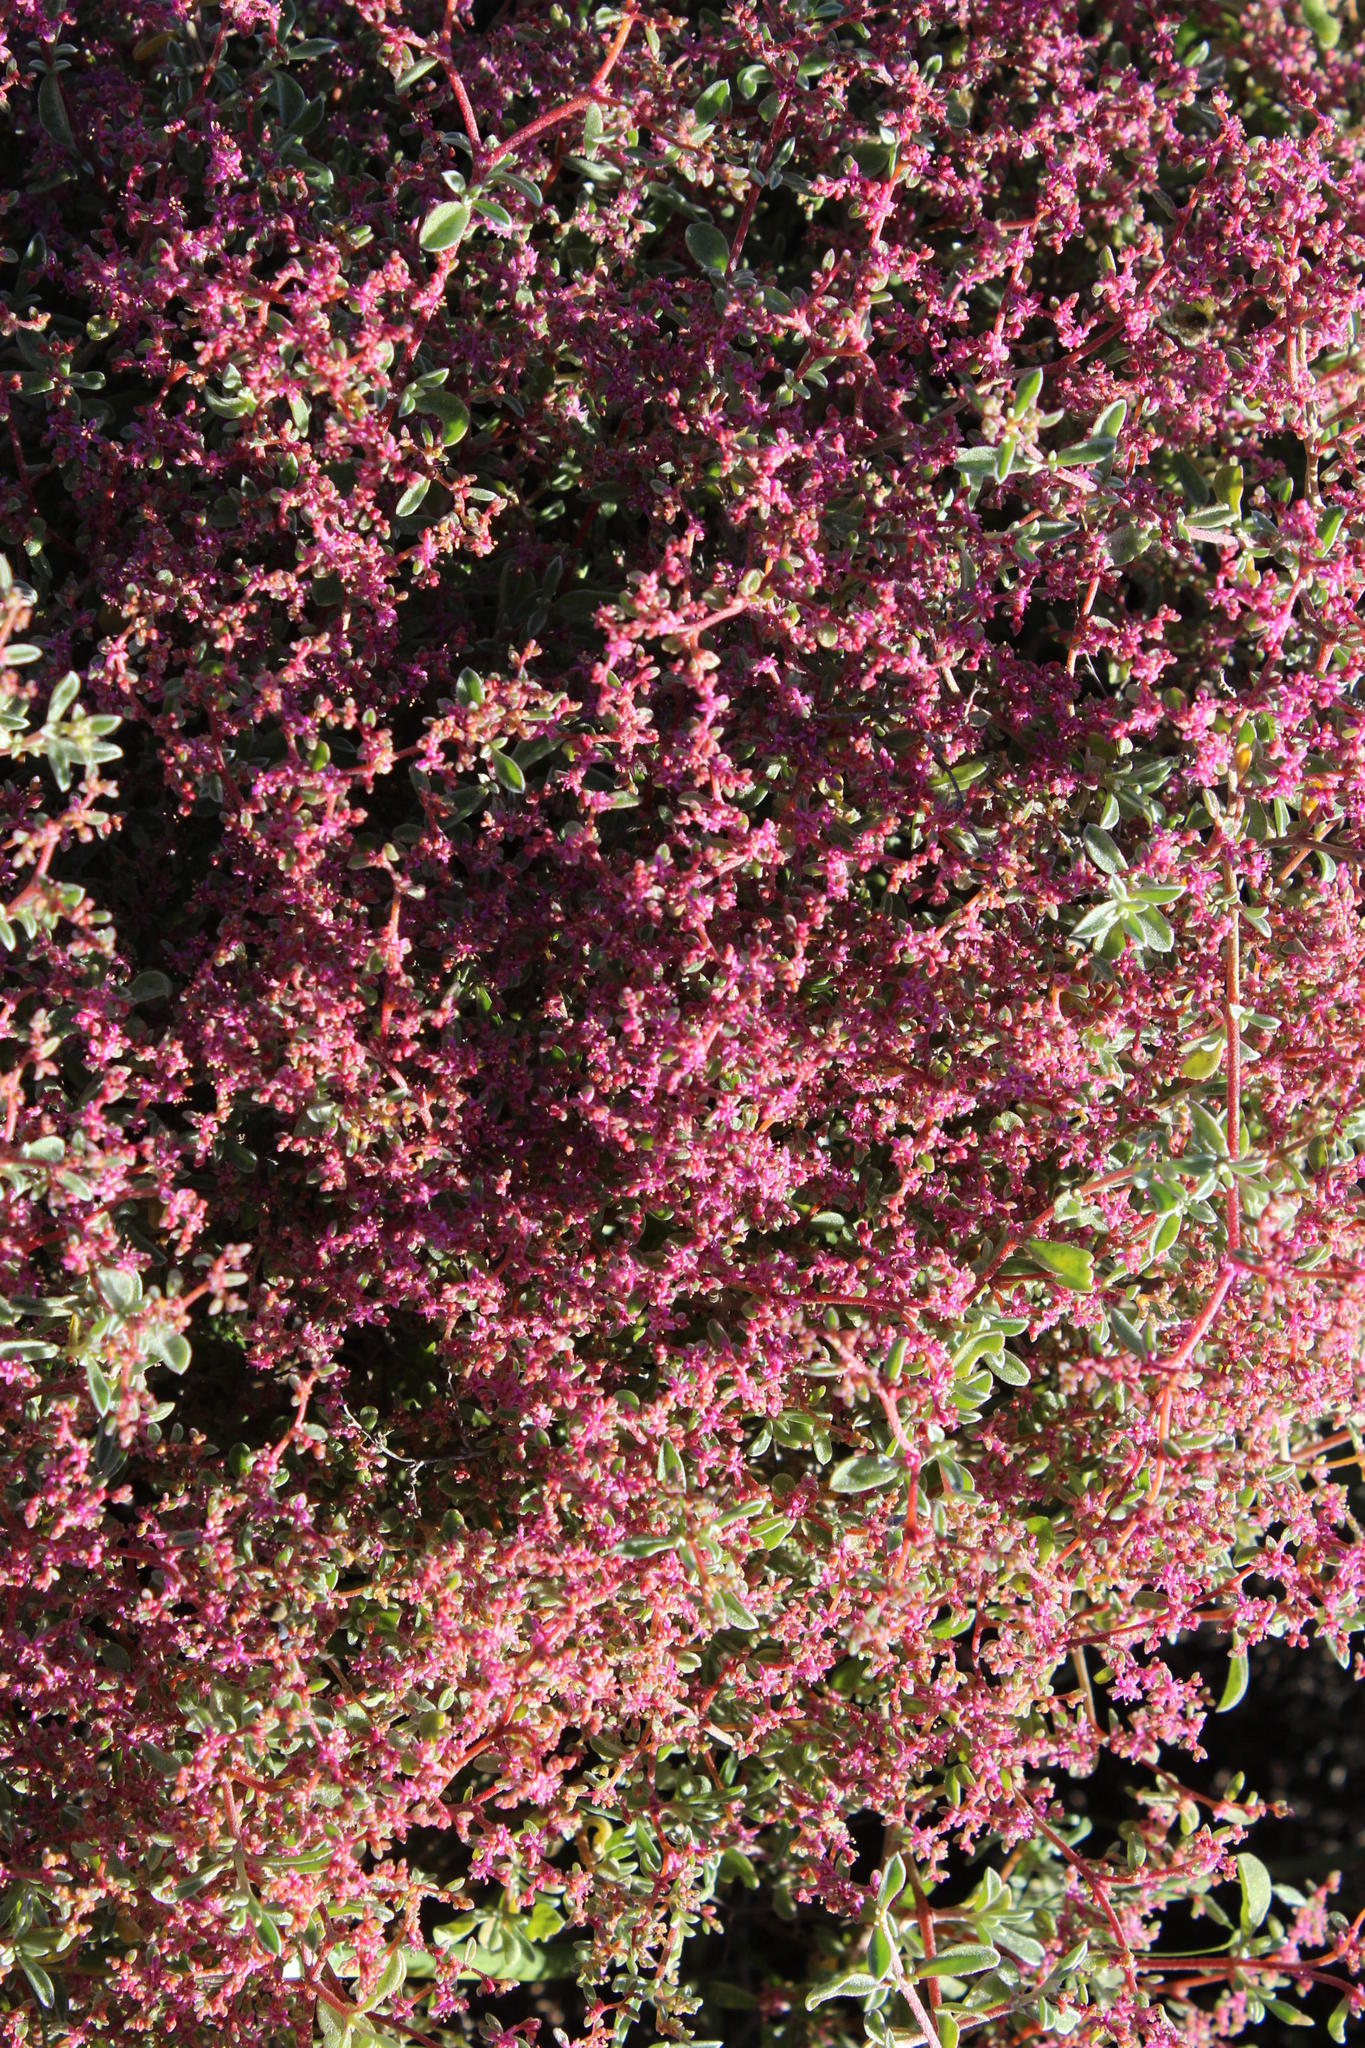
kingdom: Plantae
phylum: Tracheophyta
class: Magnoliopsida
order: Caryophyllales
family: Aizoaceae
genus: Aizoon
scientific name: Aizoon sarcophyllum
